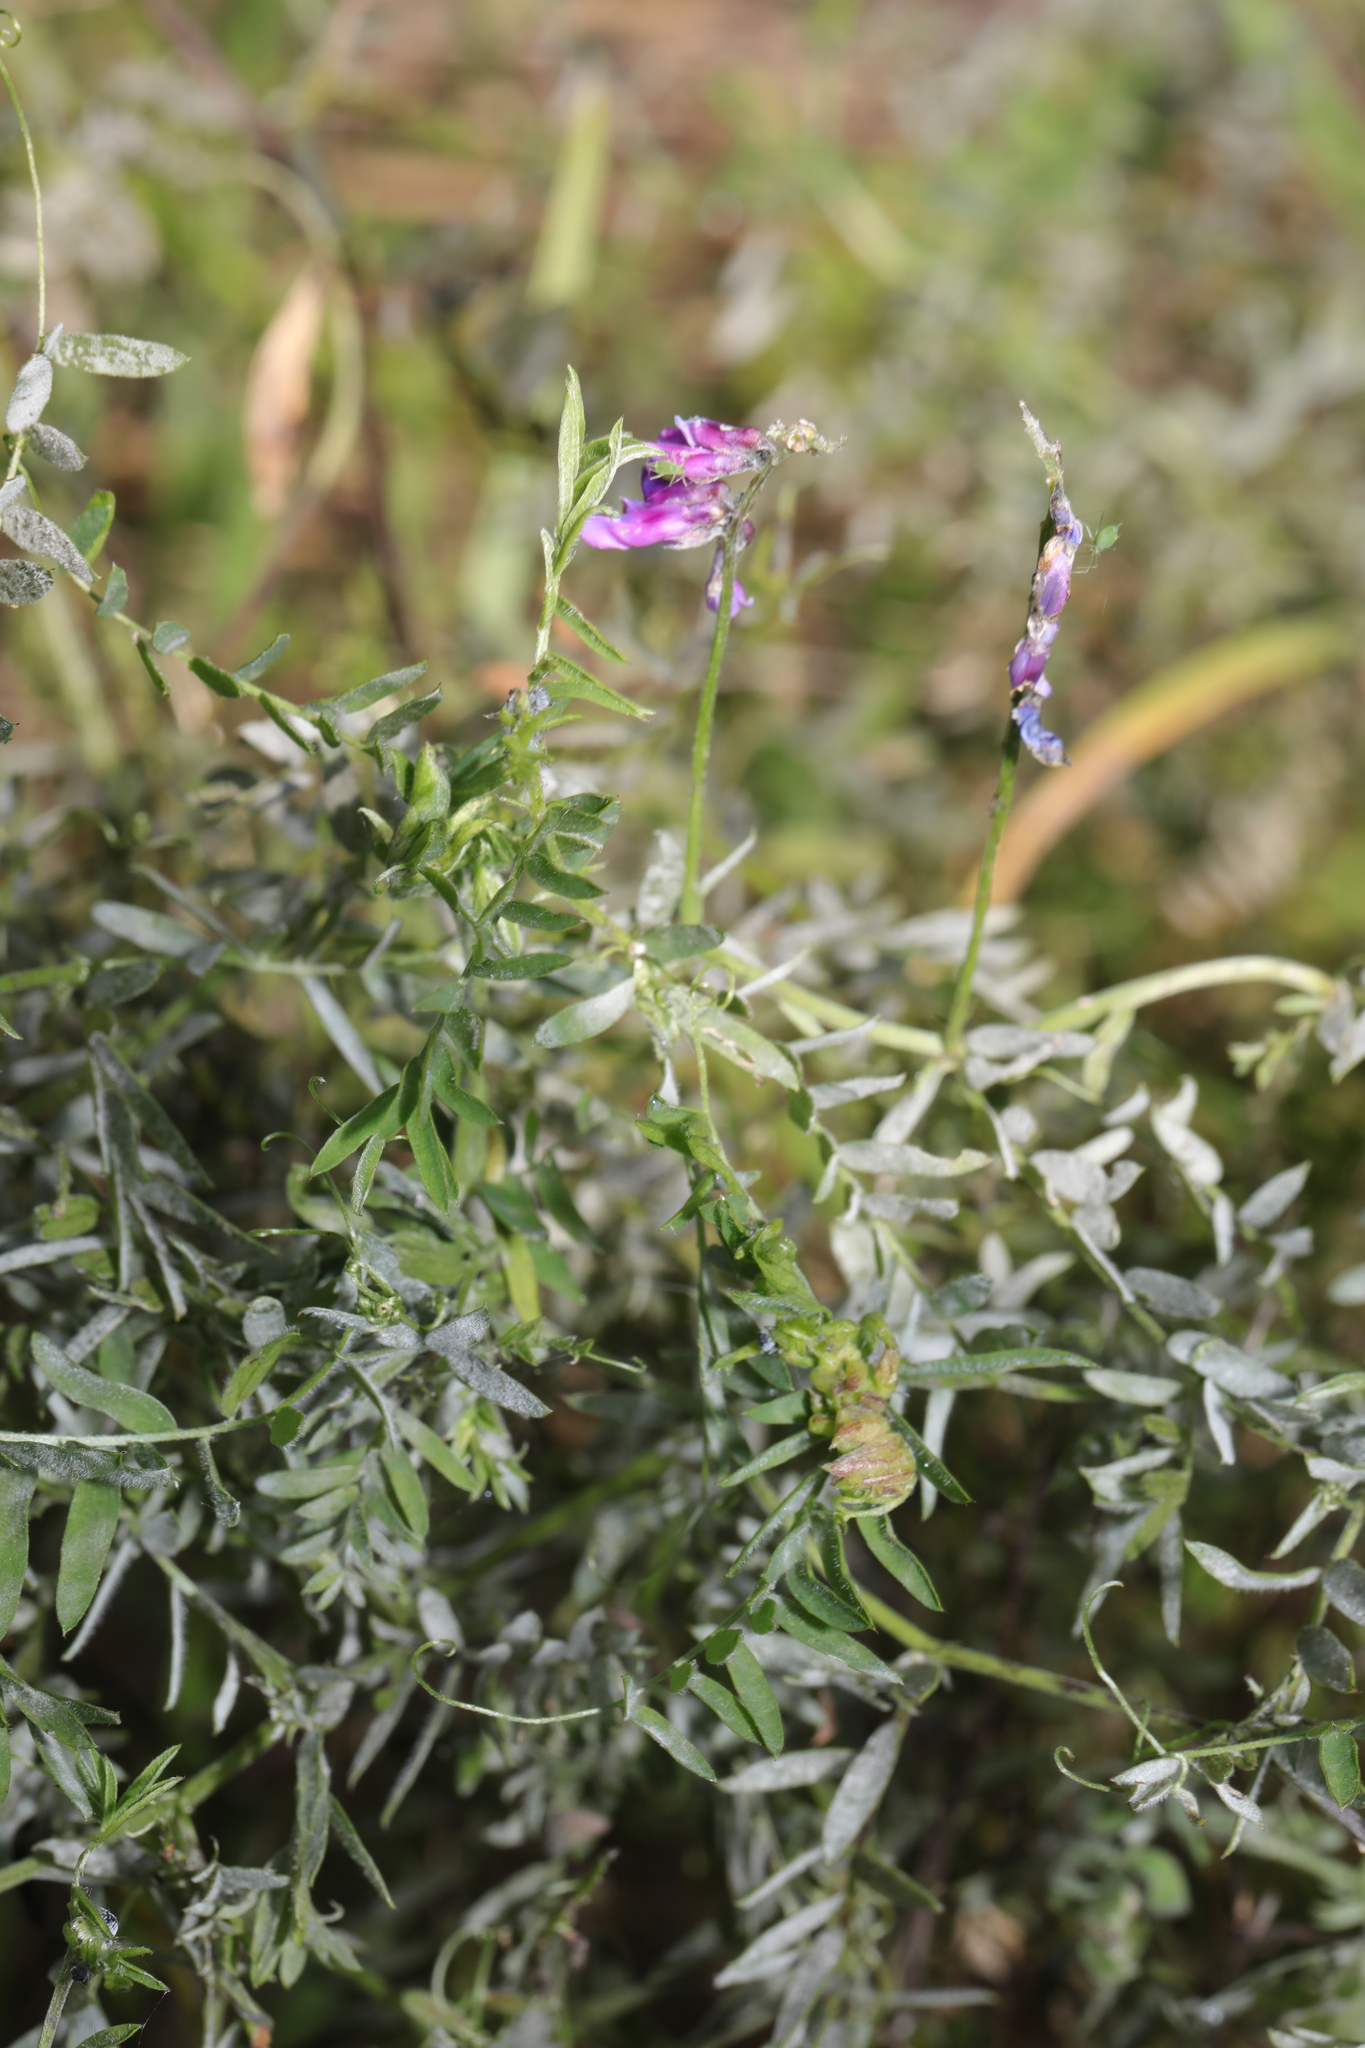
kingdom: Plantae
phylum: Tracheophyta
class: Magnoliopsida
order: Fabales
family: Fabaceae
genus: Vicia
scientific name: Vicia cracca
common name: Bird vetch
